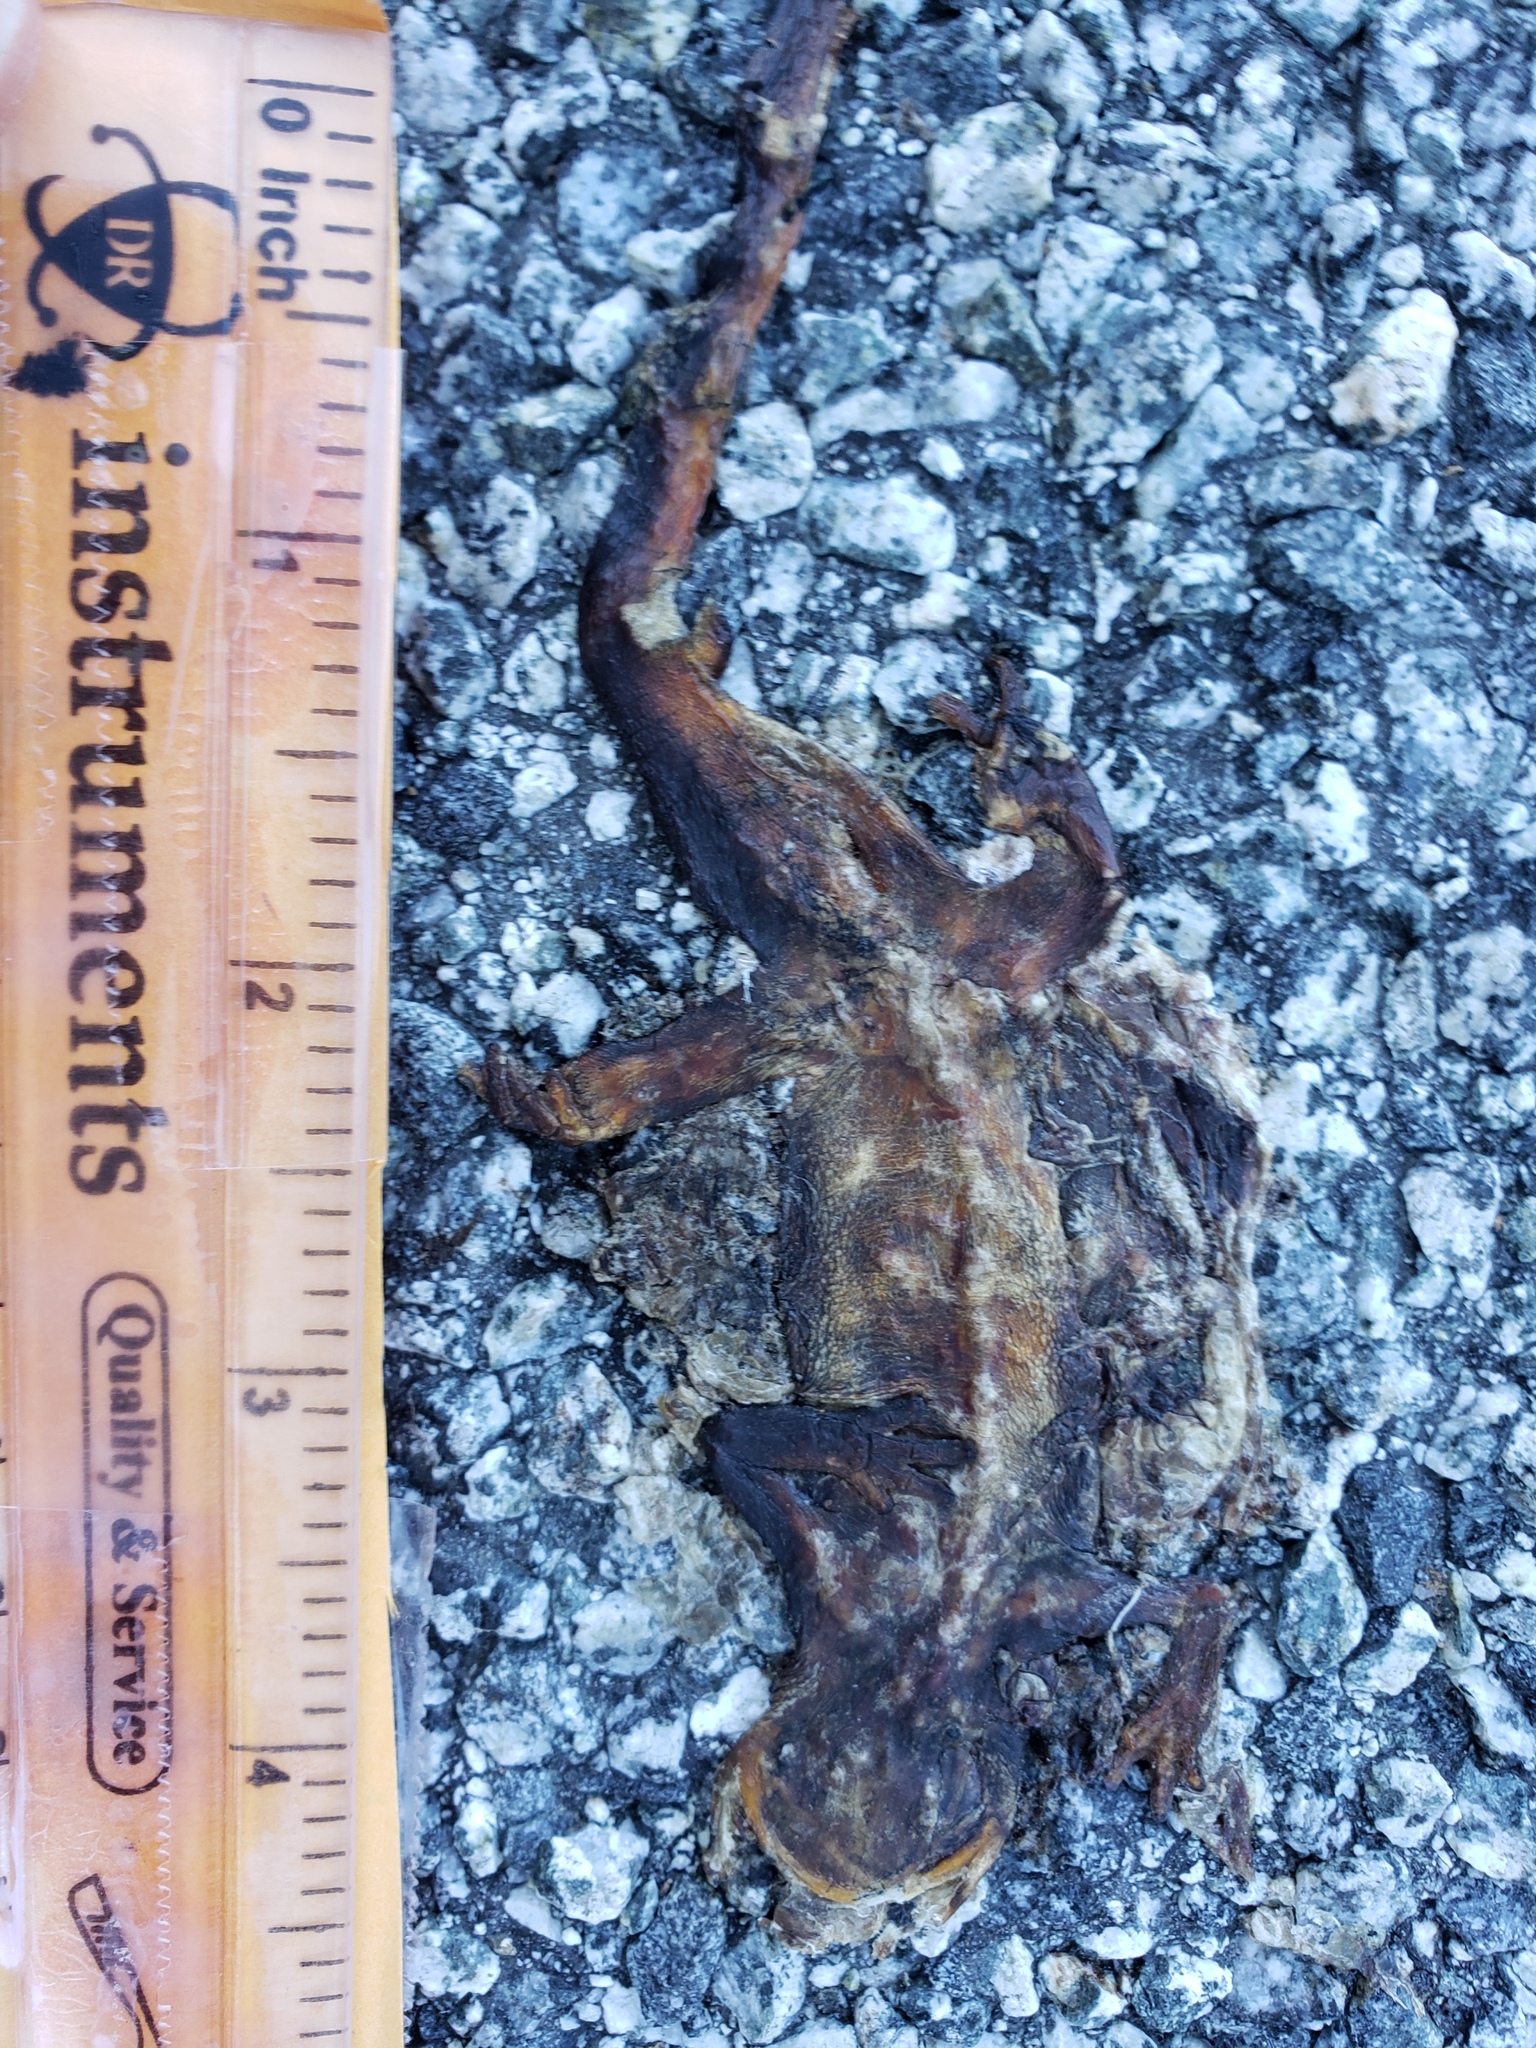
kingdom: Animalia
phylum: Chordata
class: Amphibia
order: Caudata
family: Salamandridae
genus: Taricha
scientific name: Taricha
